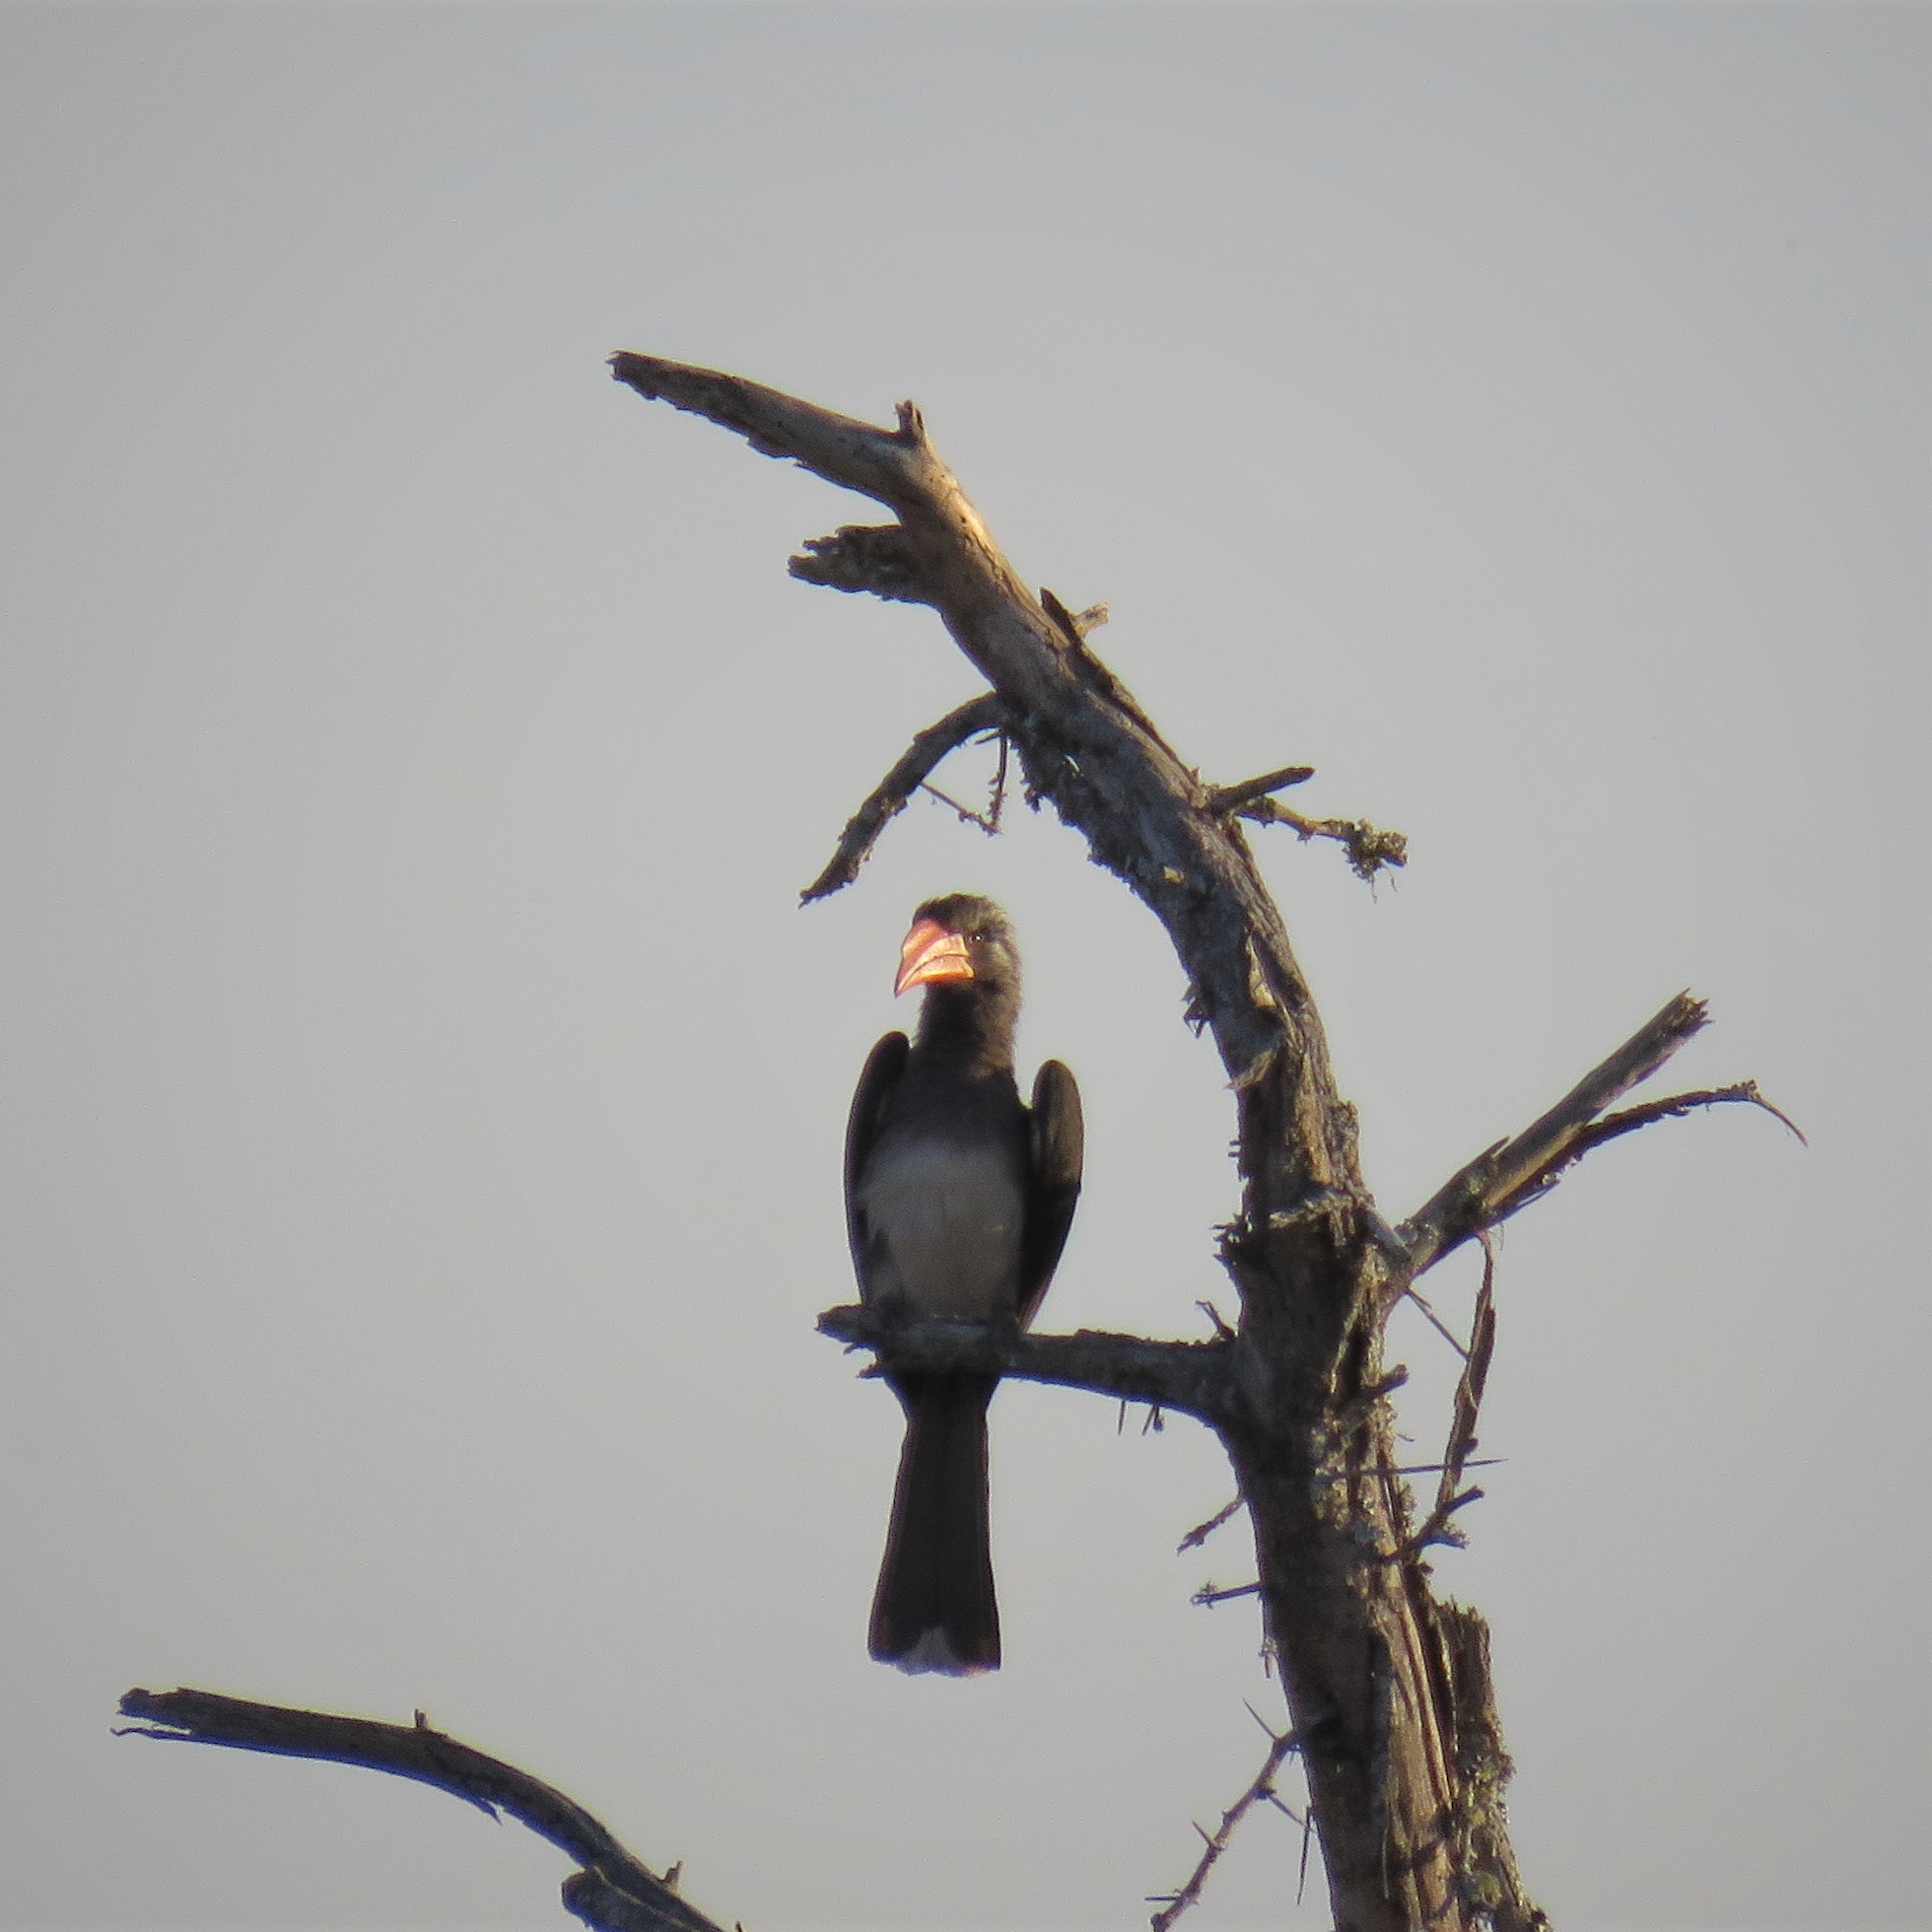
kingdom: Animalia
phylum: Chordata
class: Aves
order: Bucerotiformes
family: Bucerotidae
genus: Lophoceros
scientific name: Lophoceros alboterminatus
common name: Crowned hornbill
